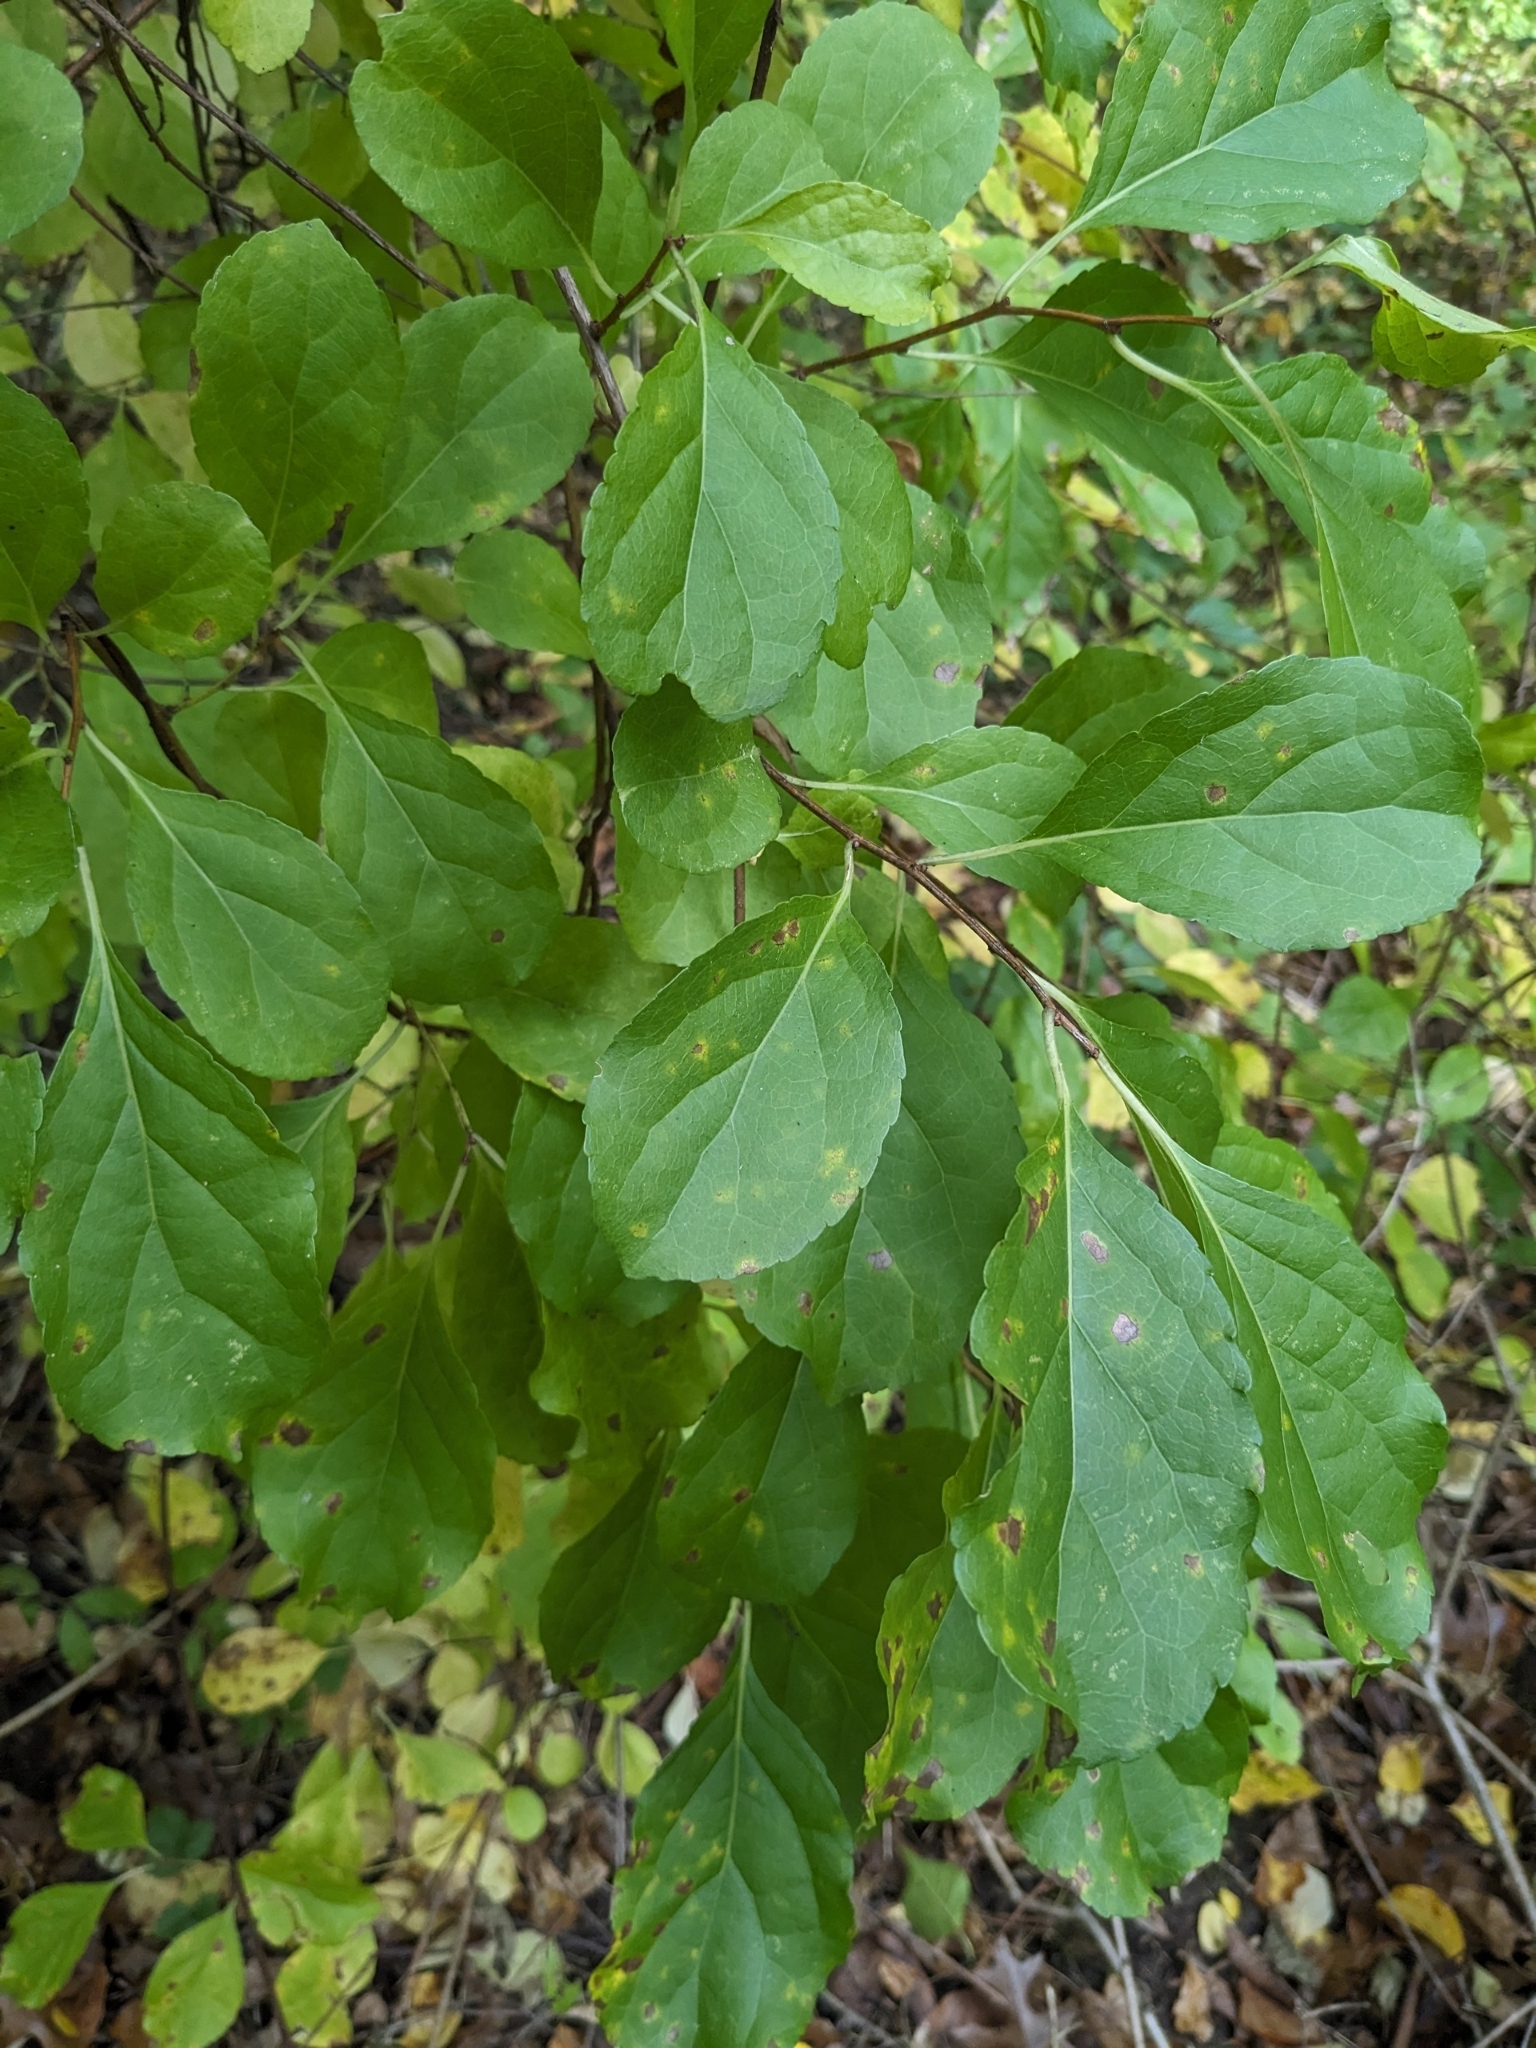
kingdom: Plantae
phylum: Tracheophyta
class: Magnoliopsida
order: Celastrales
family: Celastraceae
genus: Celastrus
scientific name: Celastrus orbiculatus
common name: Oriental bittersweet
